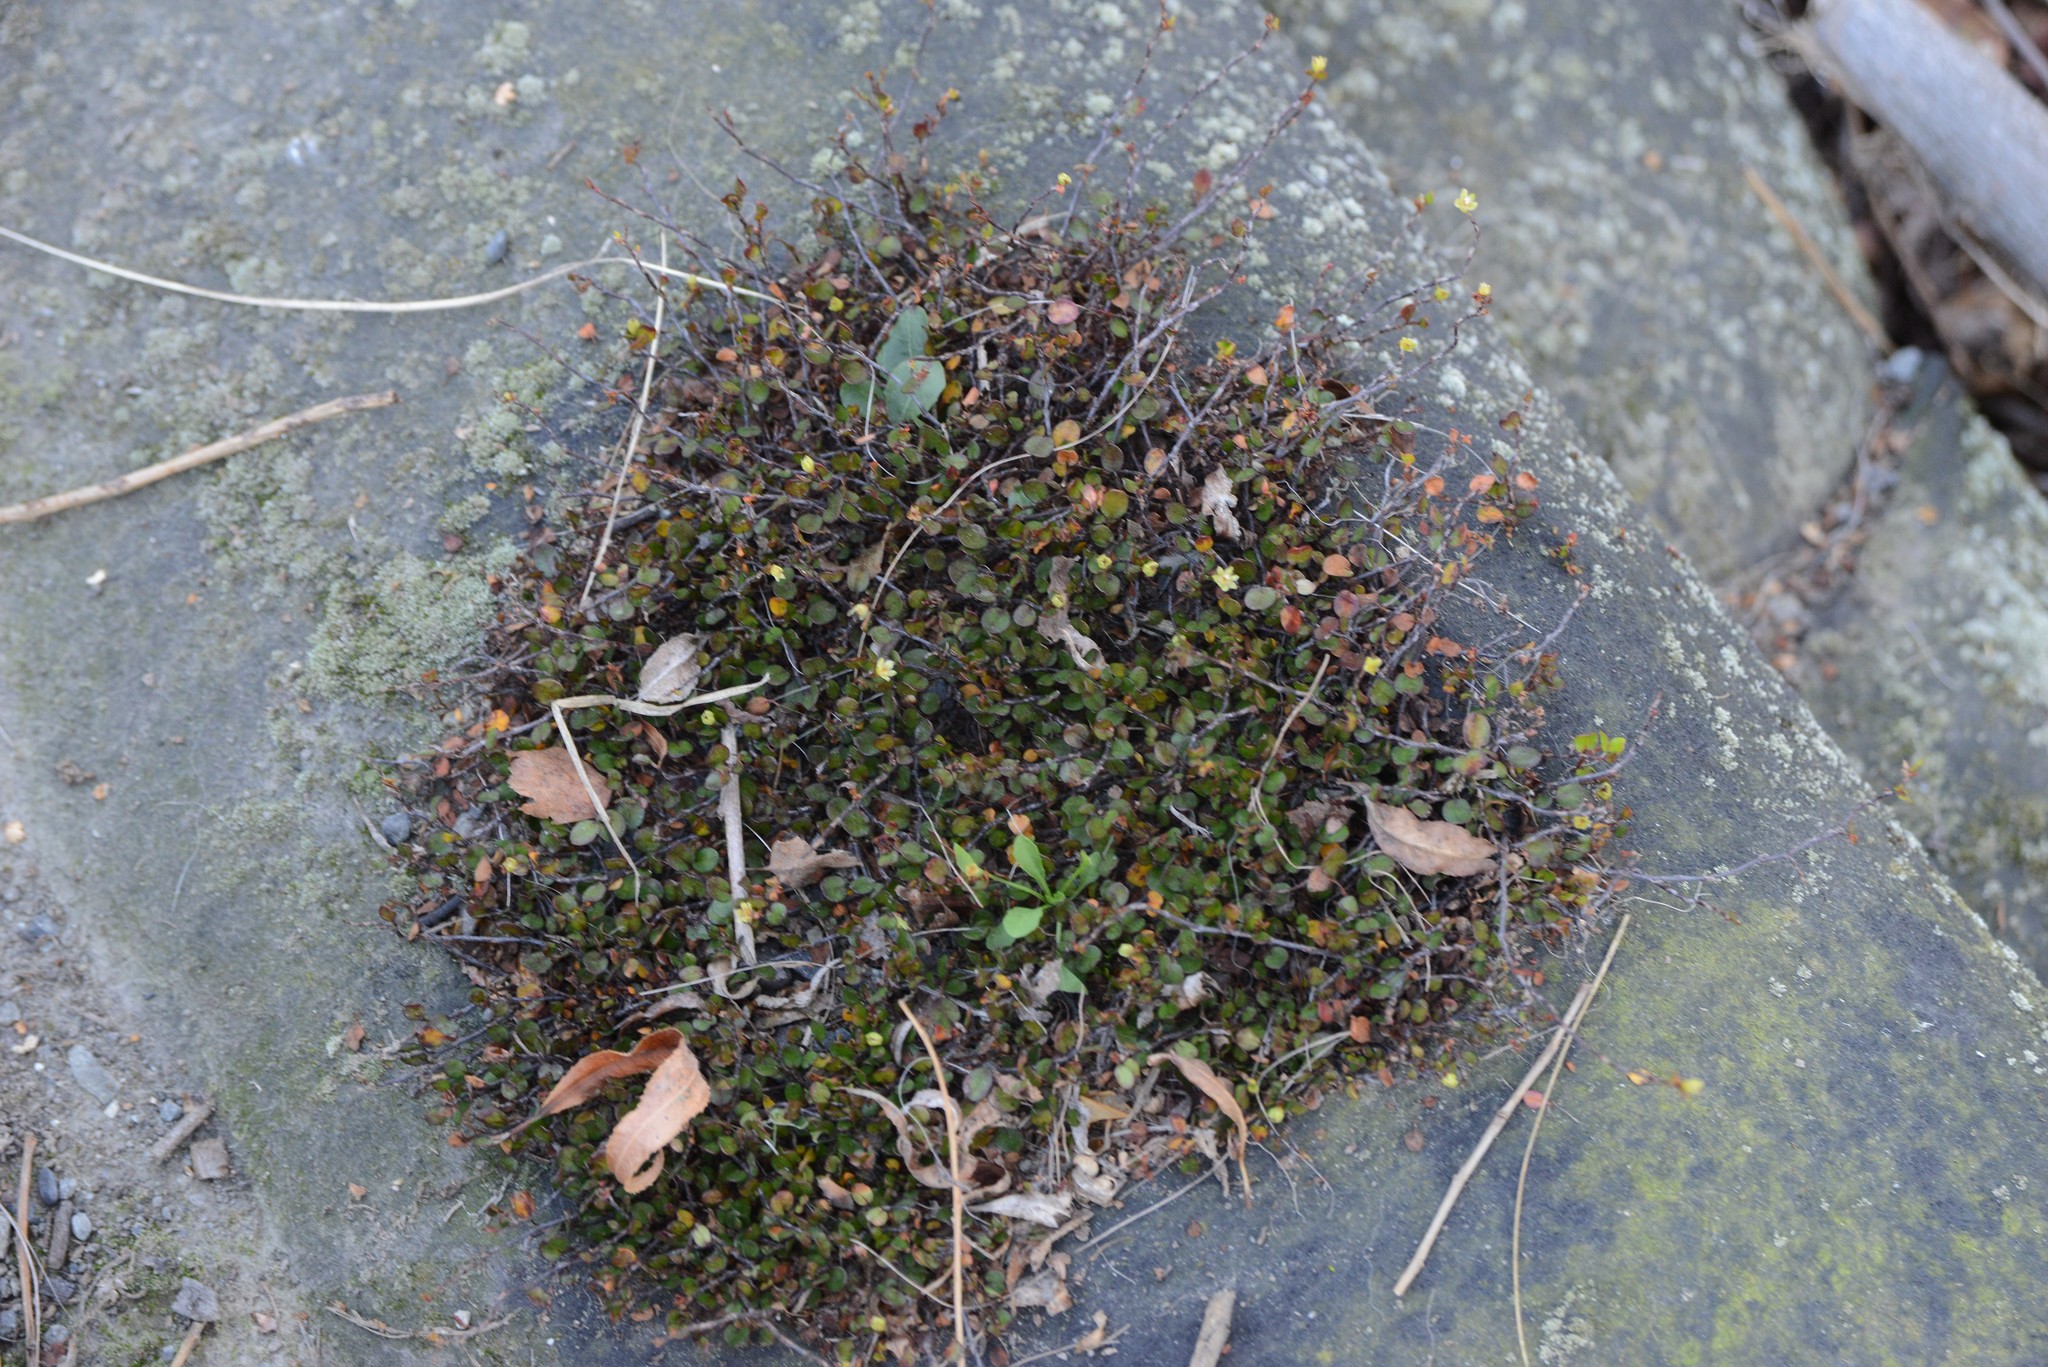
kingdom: Plantae
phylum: Tracheophyta
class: Magnoliopsida
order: Caryophyllales
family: Polygonaceae
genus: Muehlenbeckia
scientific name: Muehlenbeckia axillaris
